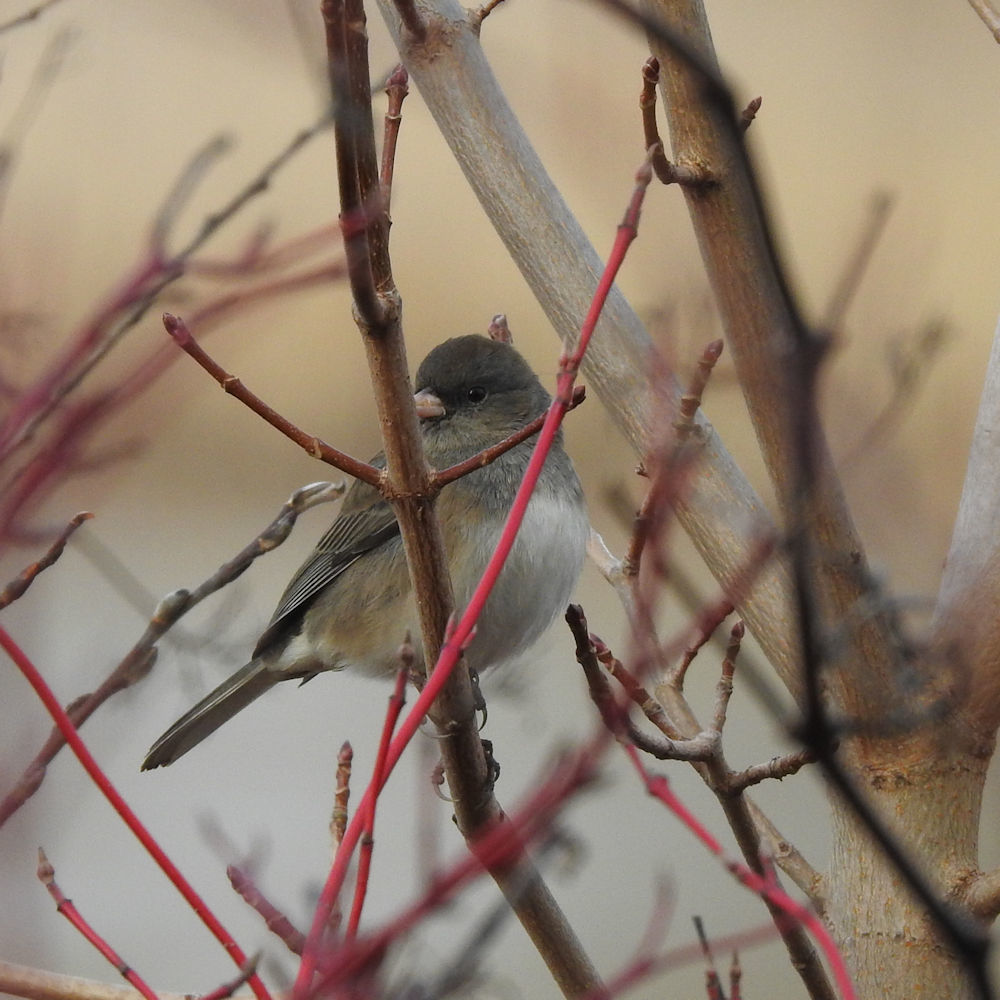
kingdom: Animalia
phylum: Chordata
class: Aves
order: Passeriformes
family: Passerellidae
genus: Junco
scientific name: Junco hyemalis
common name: Dark-eyed junco
